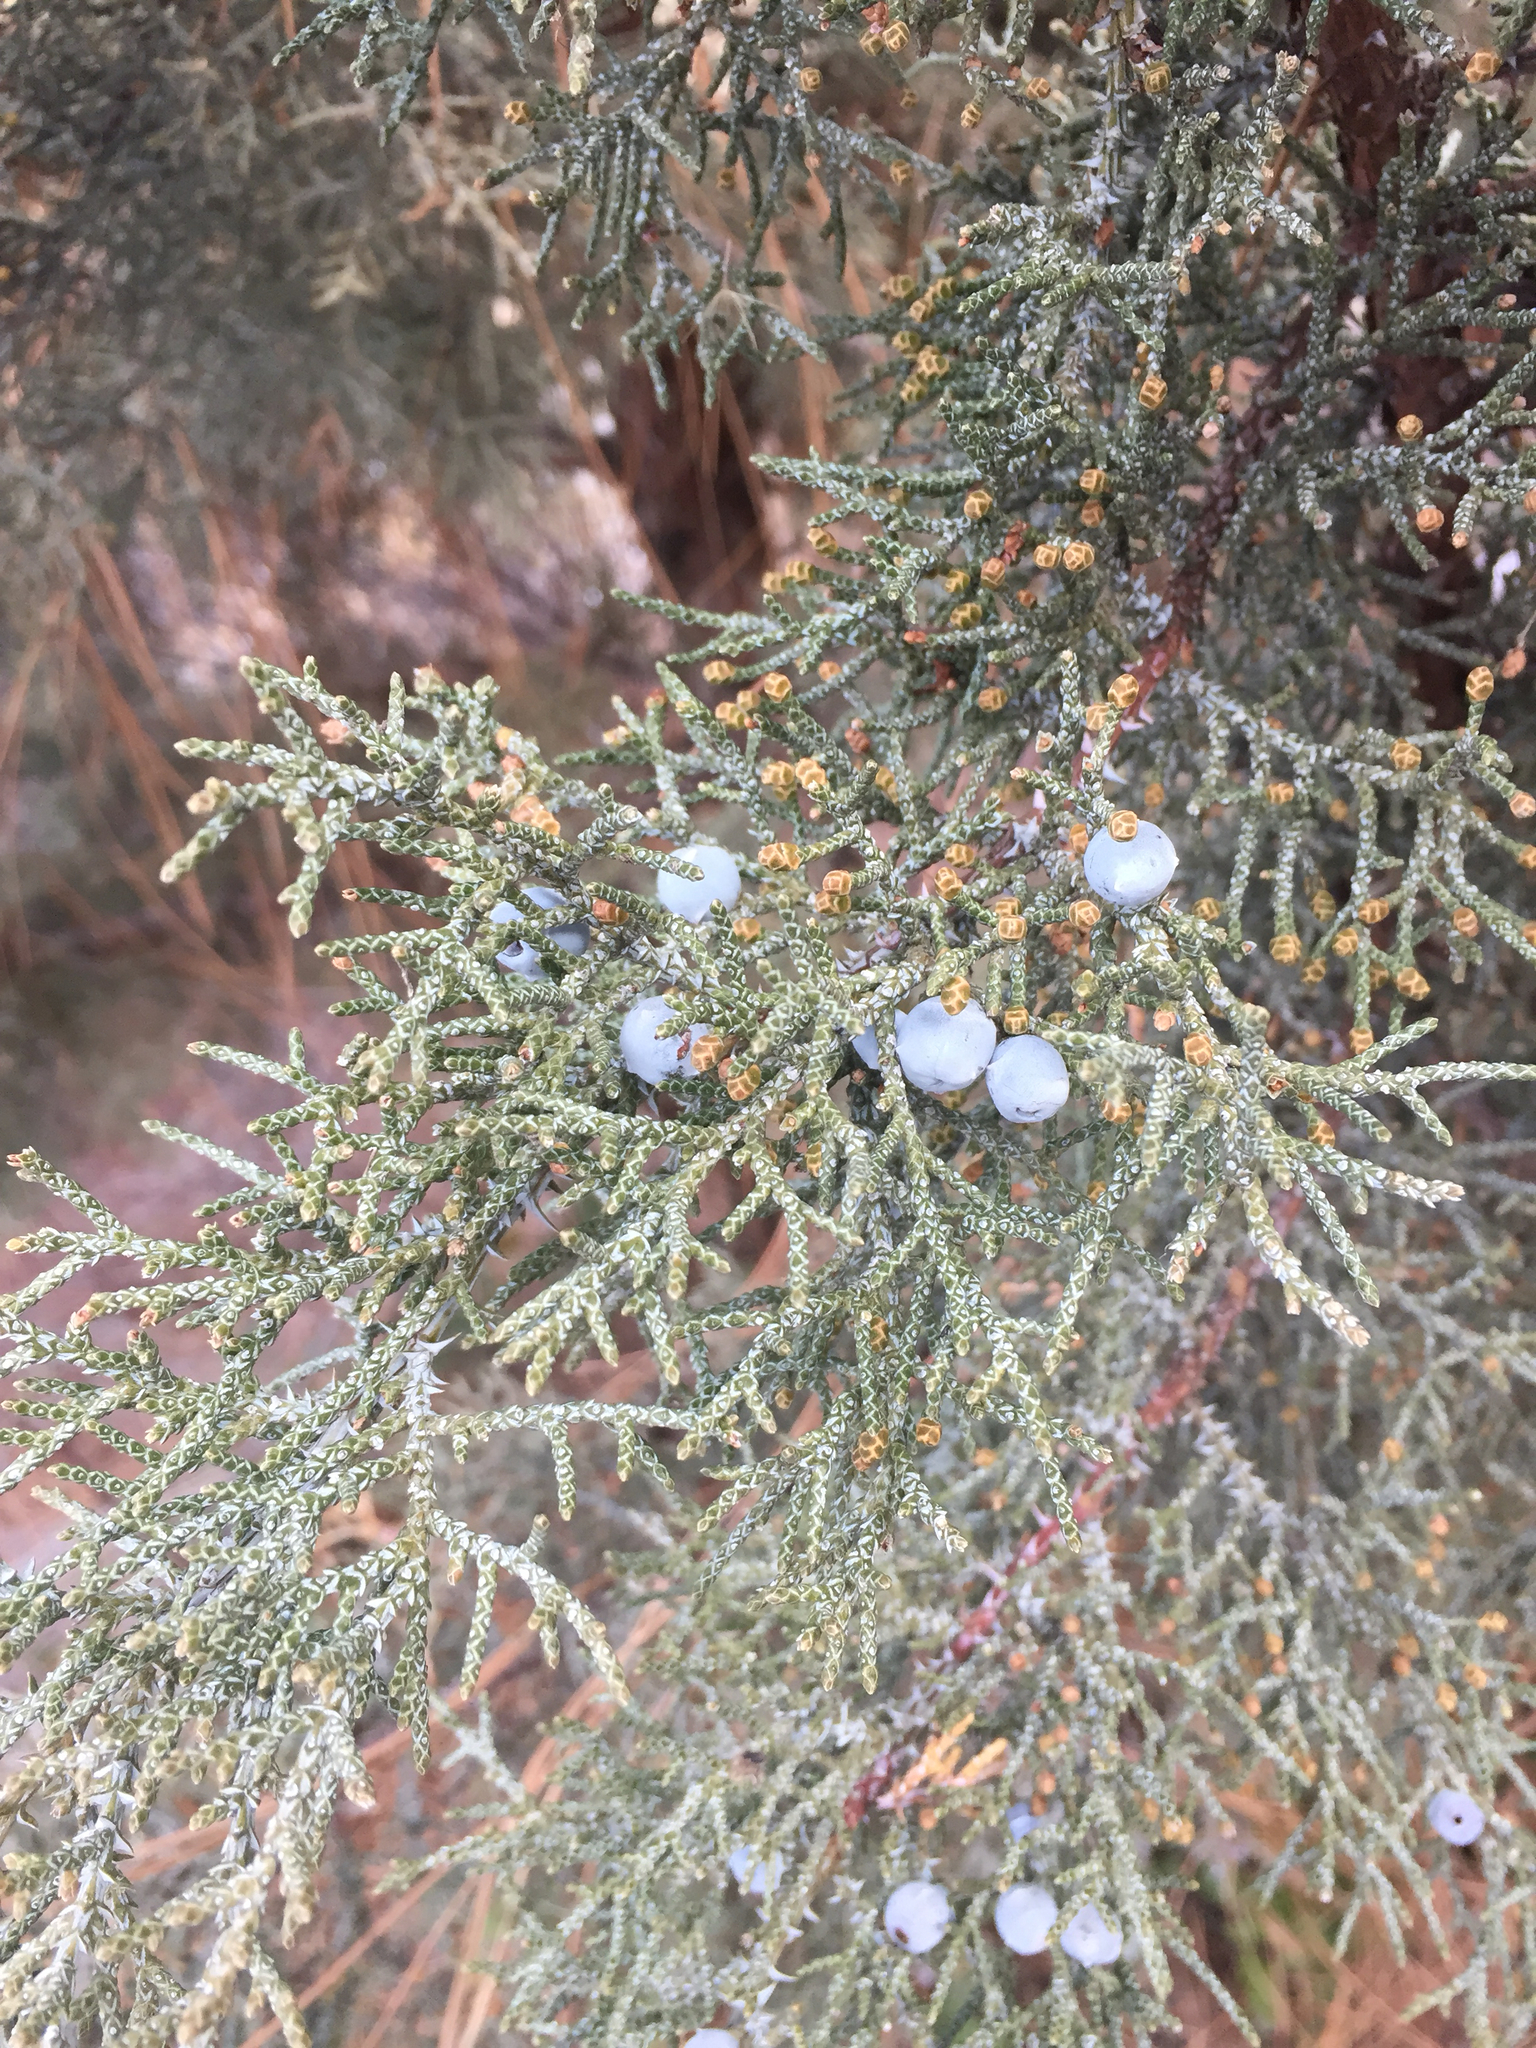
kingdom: Plantae
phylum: Tracheophyta
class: Pinopsida
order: Pinales
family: Cupressaceae
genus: Juniperus
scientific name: Juniperus occidentalis
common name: Western juniper
